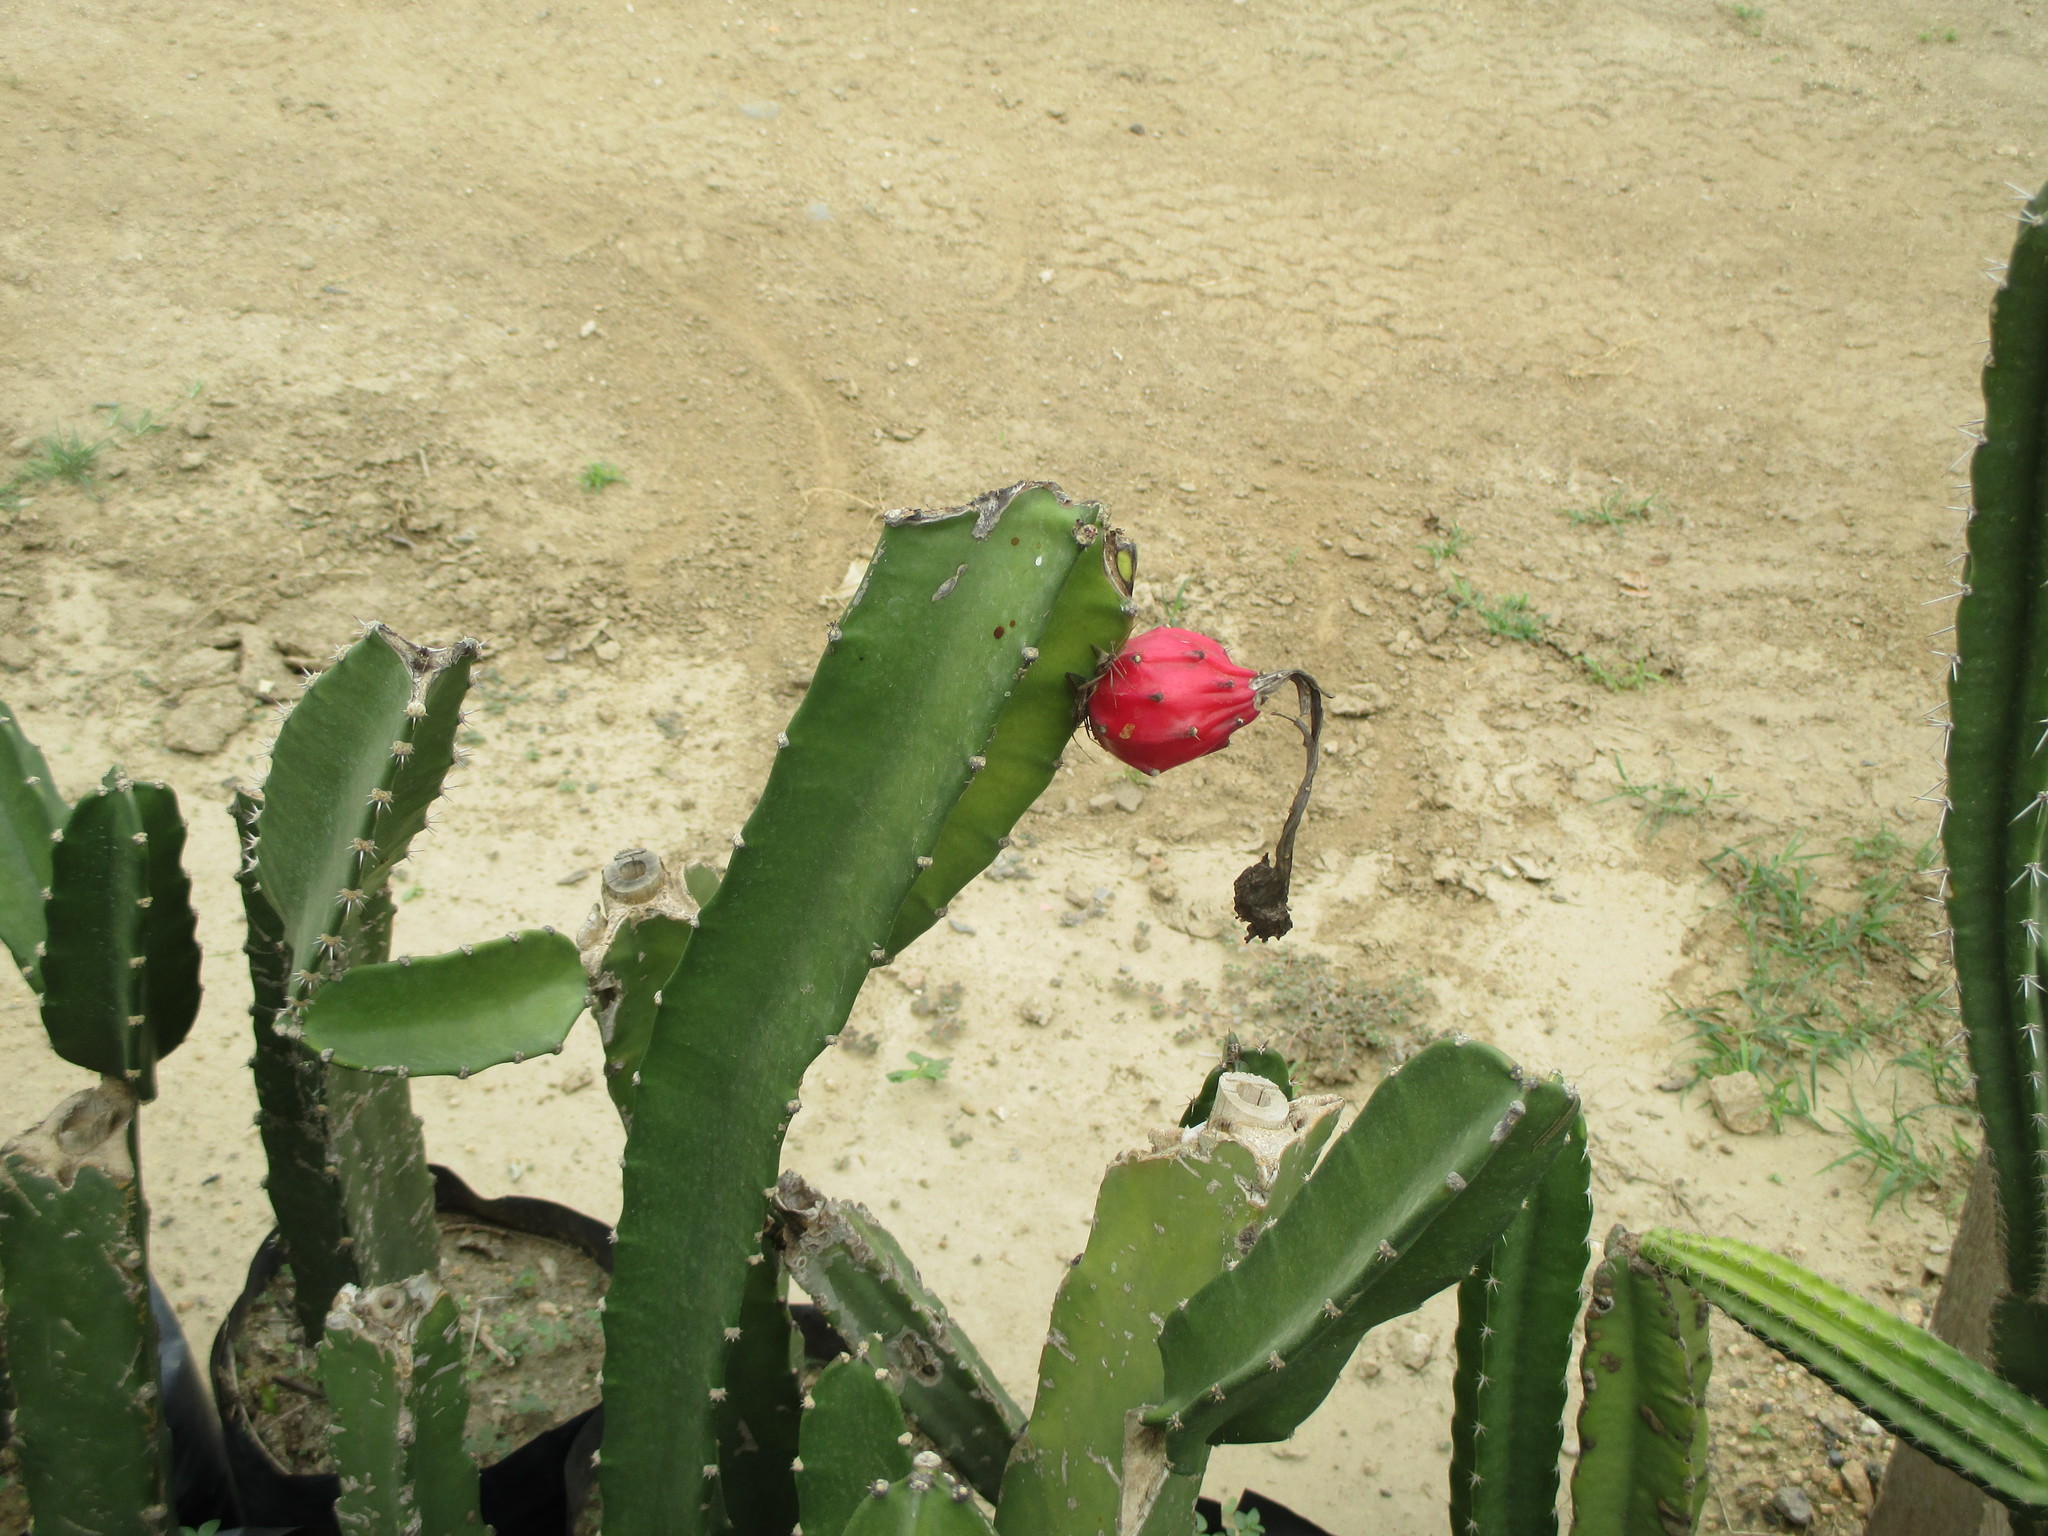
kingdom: Plantae
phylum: Tracheophyta
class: Magnoliopsida
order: Caryophyllales
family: Cactaceae
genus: Acanthocereus
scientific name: Acanthocereus tetragonus
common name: Triangle cactus
